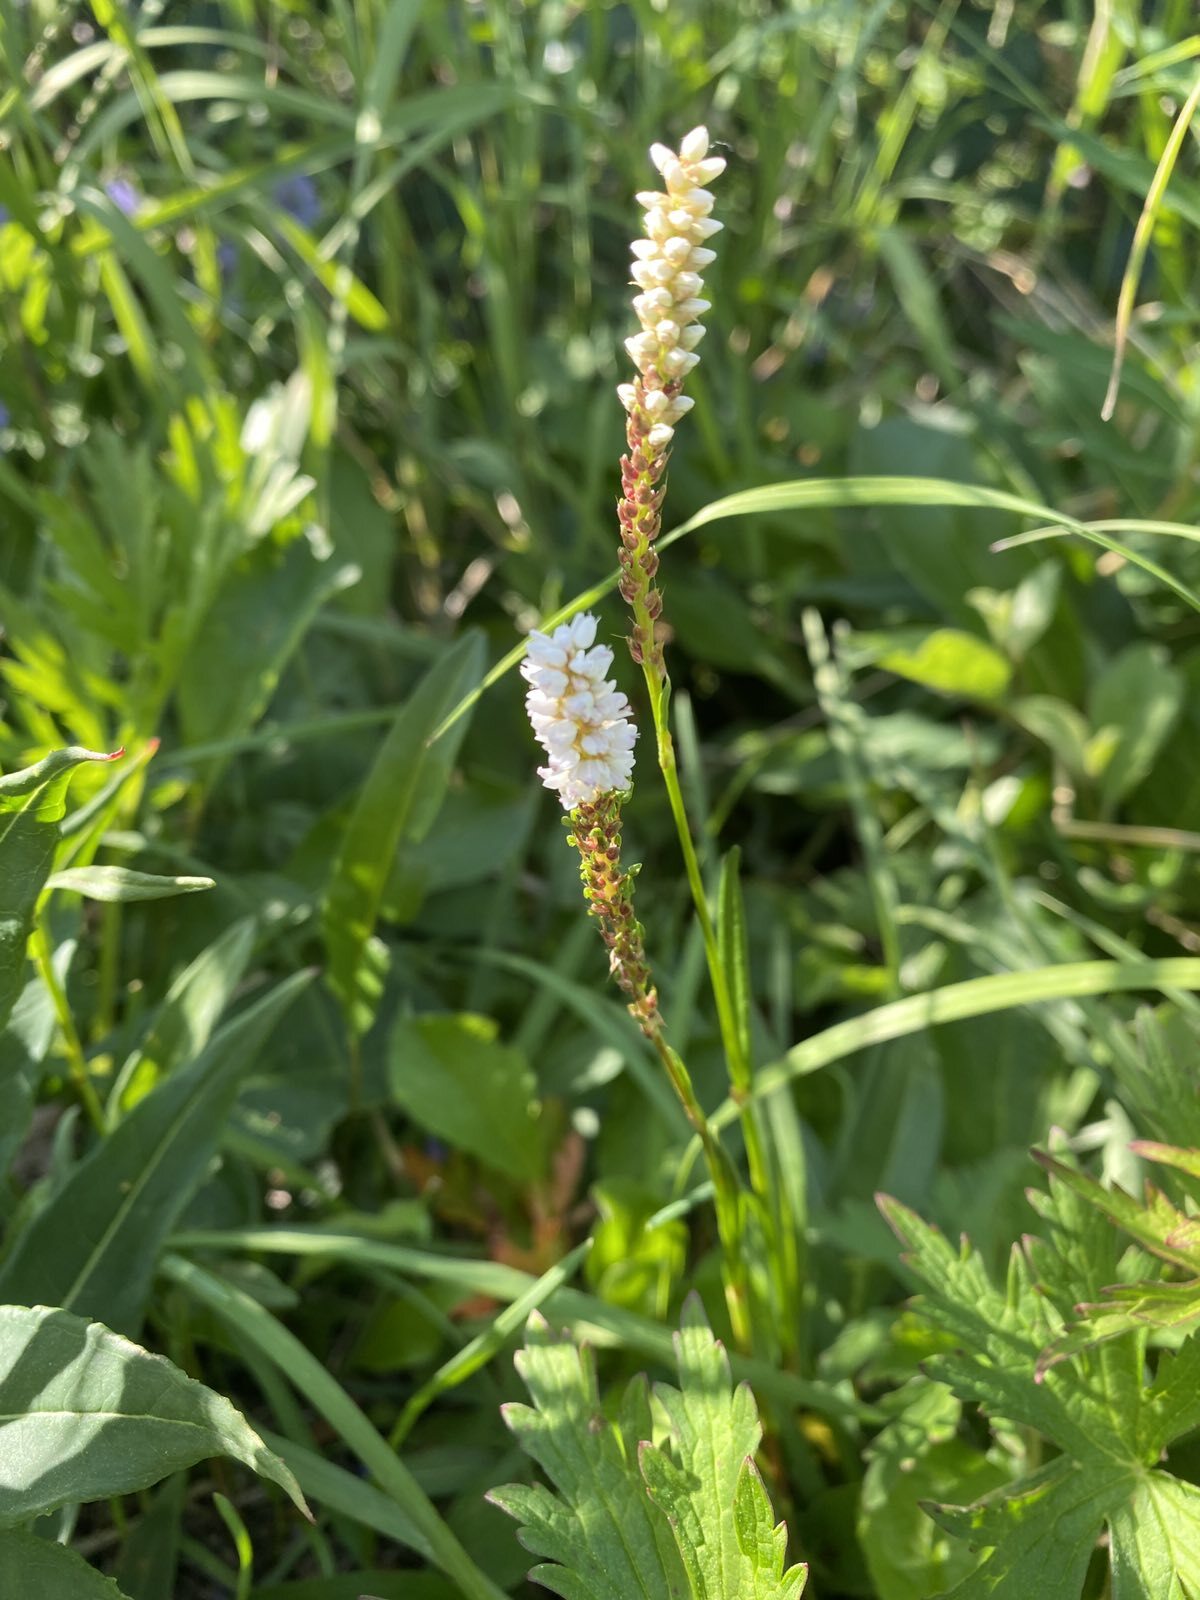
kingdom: Plantae
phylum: Tracheophyta
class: Magnoliopsida
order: Caryophyllales
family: Polygonaceae
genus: Bistorta
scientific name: Bistorta vivipara
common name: Alpine bistort
